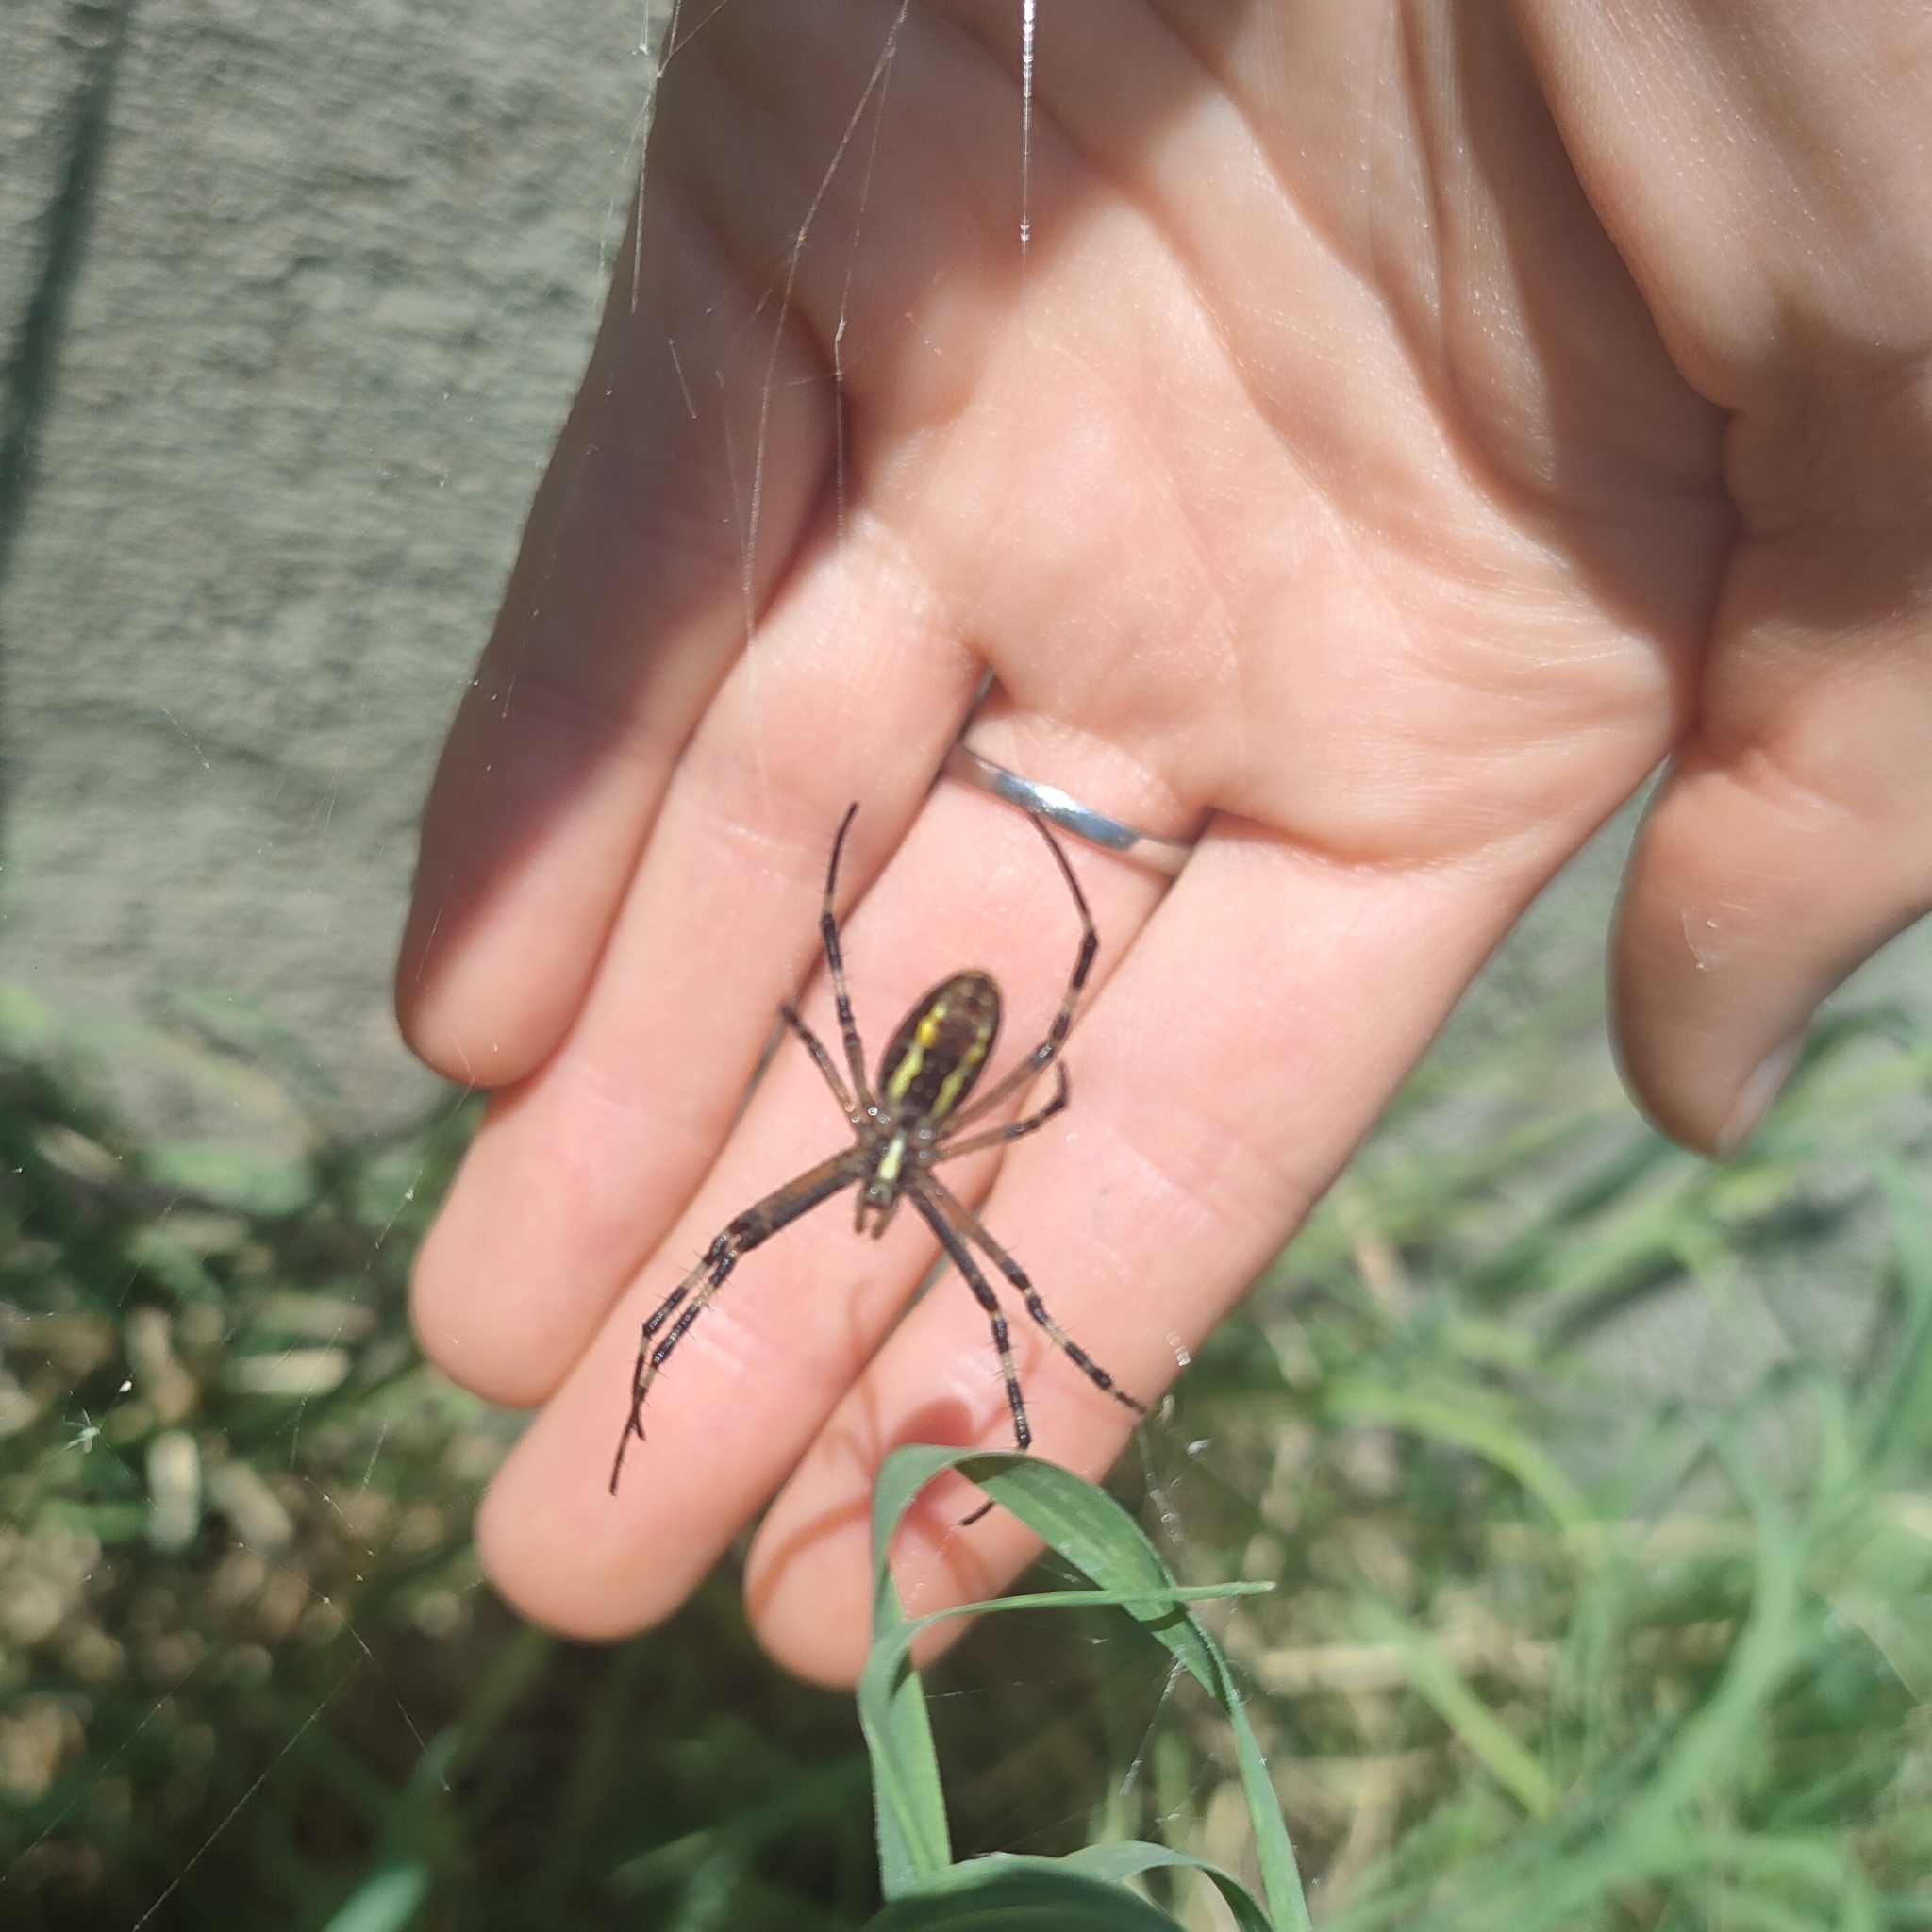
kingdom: Animalia
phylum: Arthropoda
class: Arachnida
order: Araneae
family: Araneidae
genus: Argiope
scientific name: Argiope bruennichi
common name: Wasp spider
